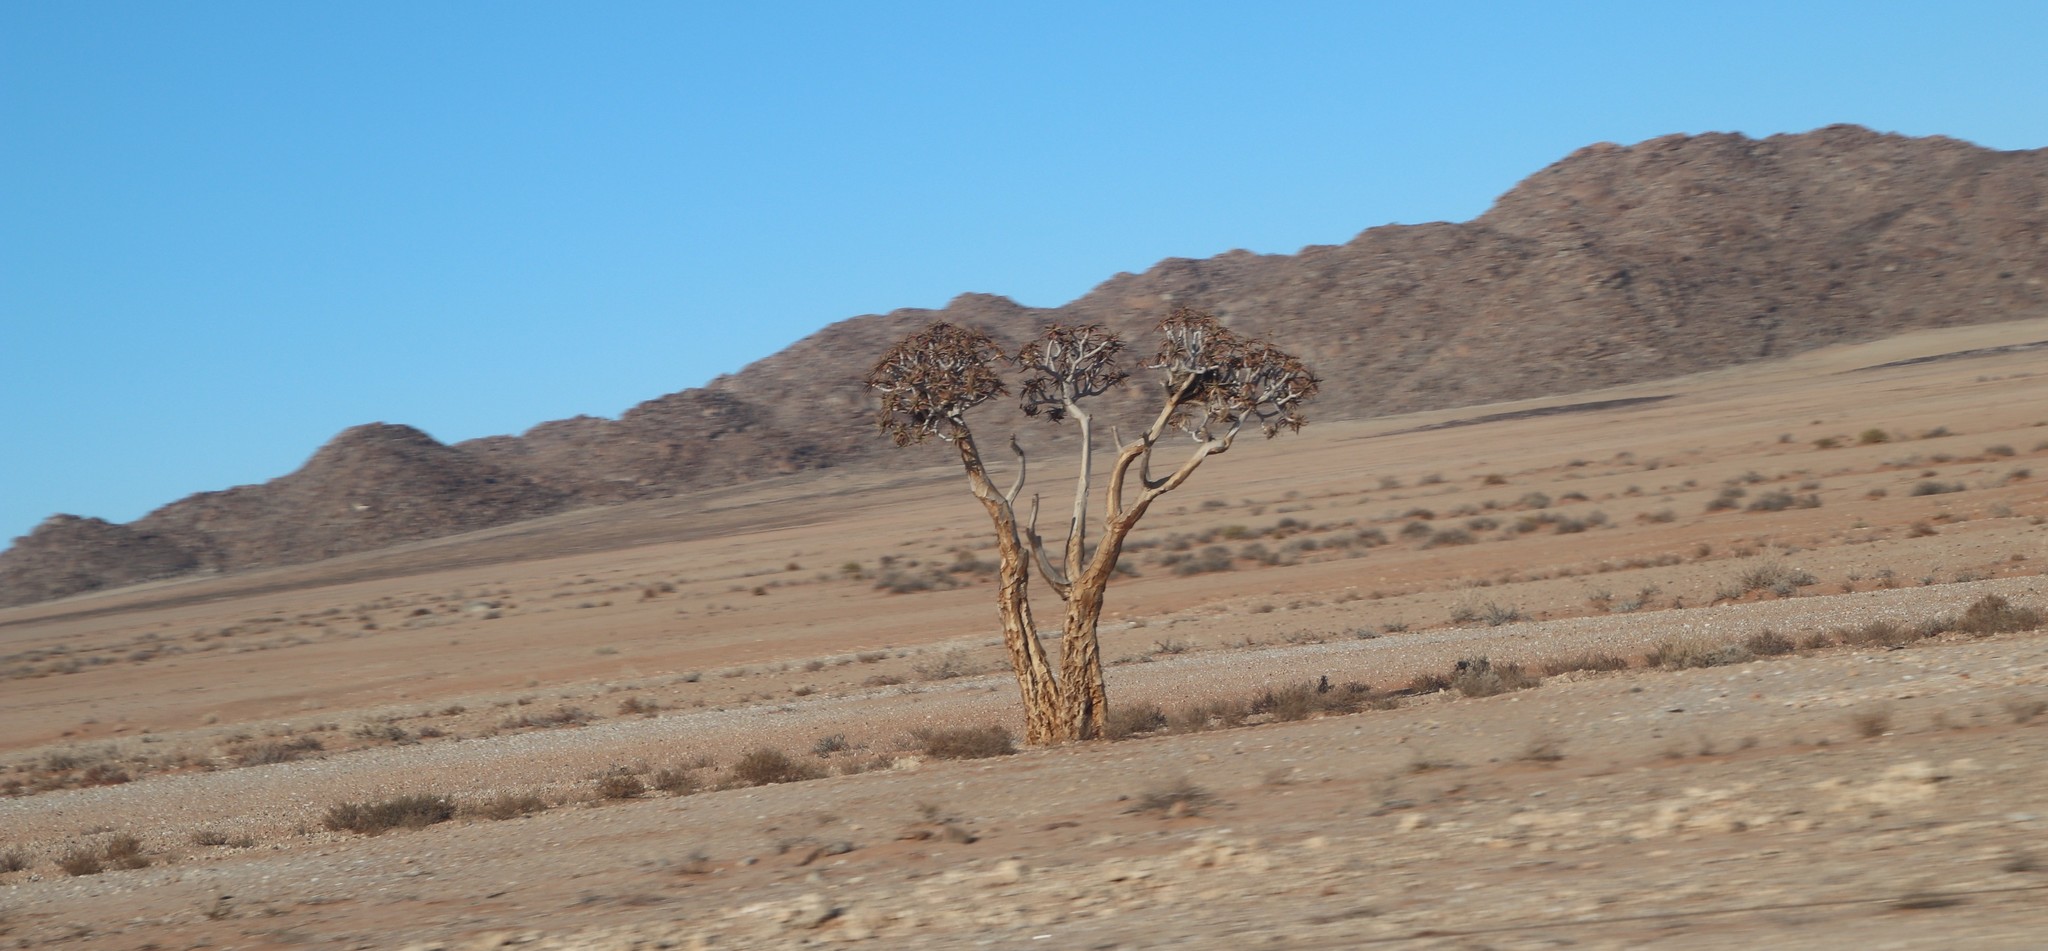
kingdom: Plantae
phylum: Tracheophyta
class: Liliopsida
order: Asparagales
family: Asphodelaceae
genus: Aloidendron
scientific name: Aloidendron dichotomum
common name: Quiver tree
